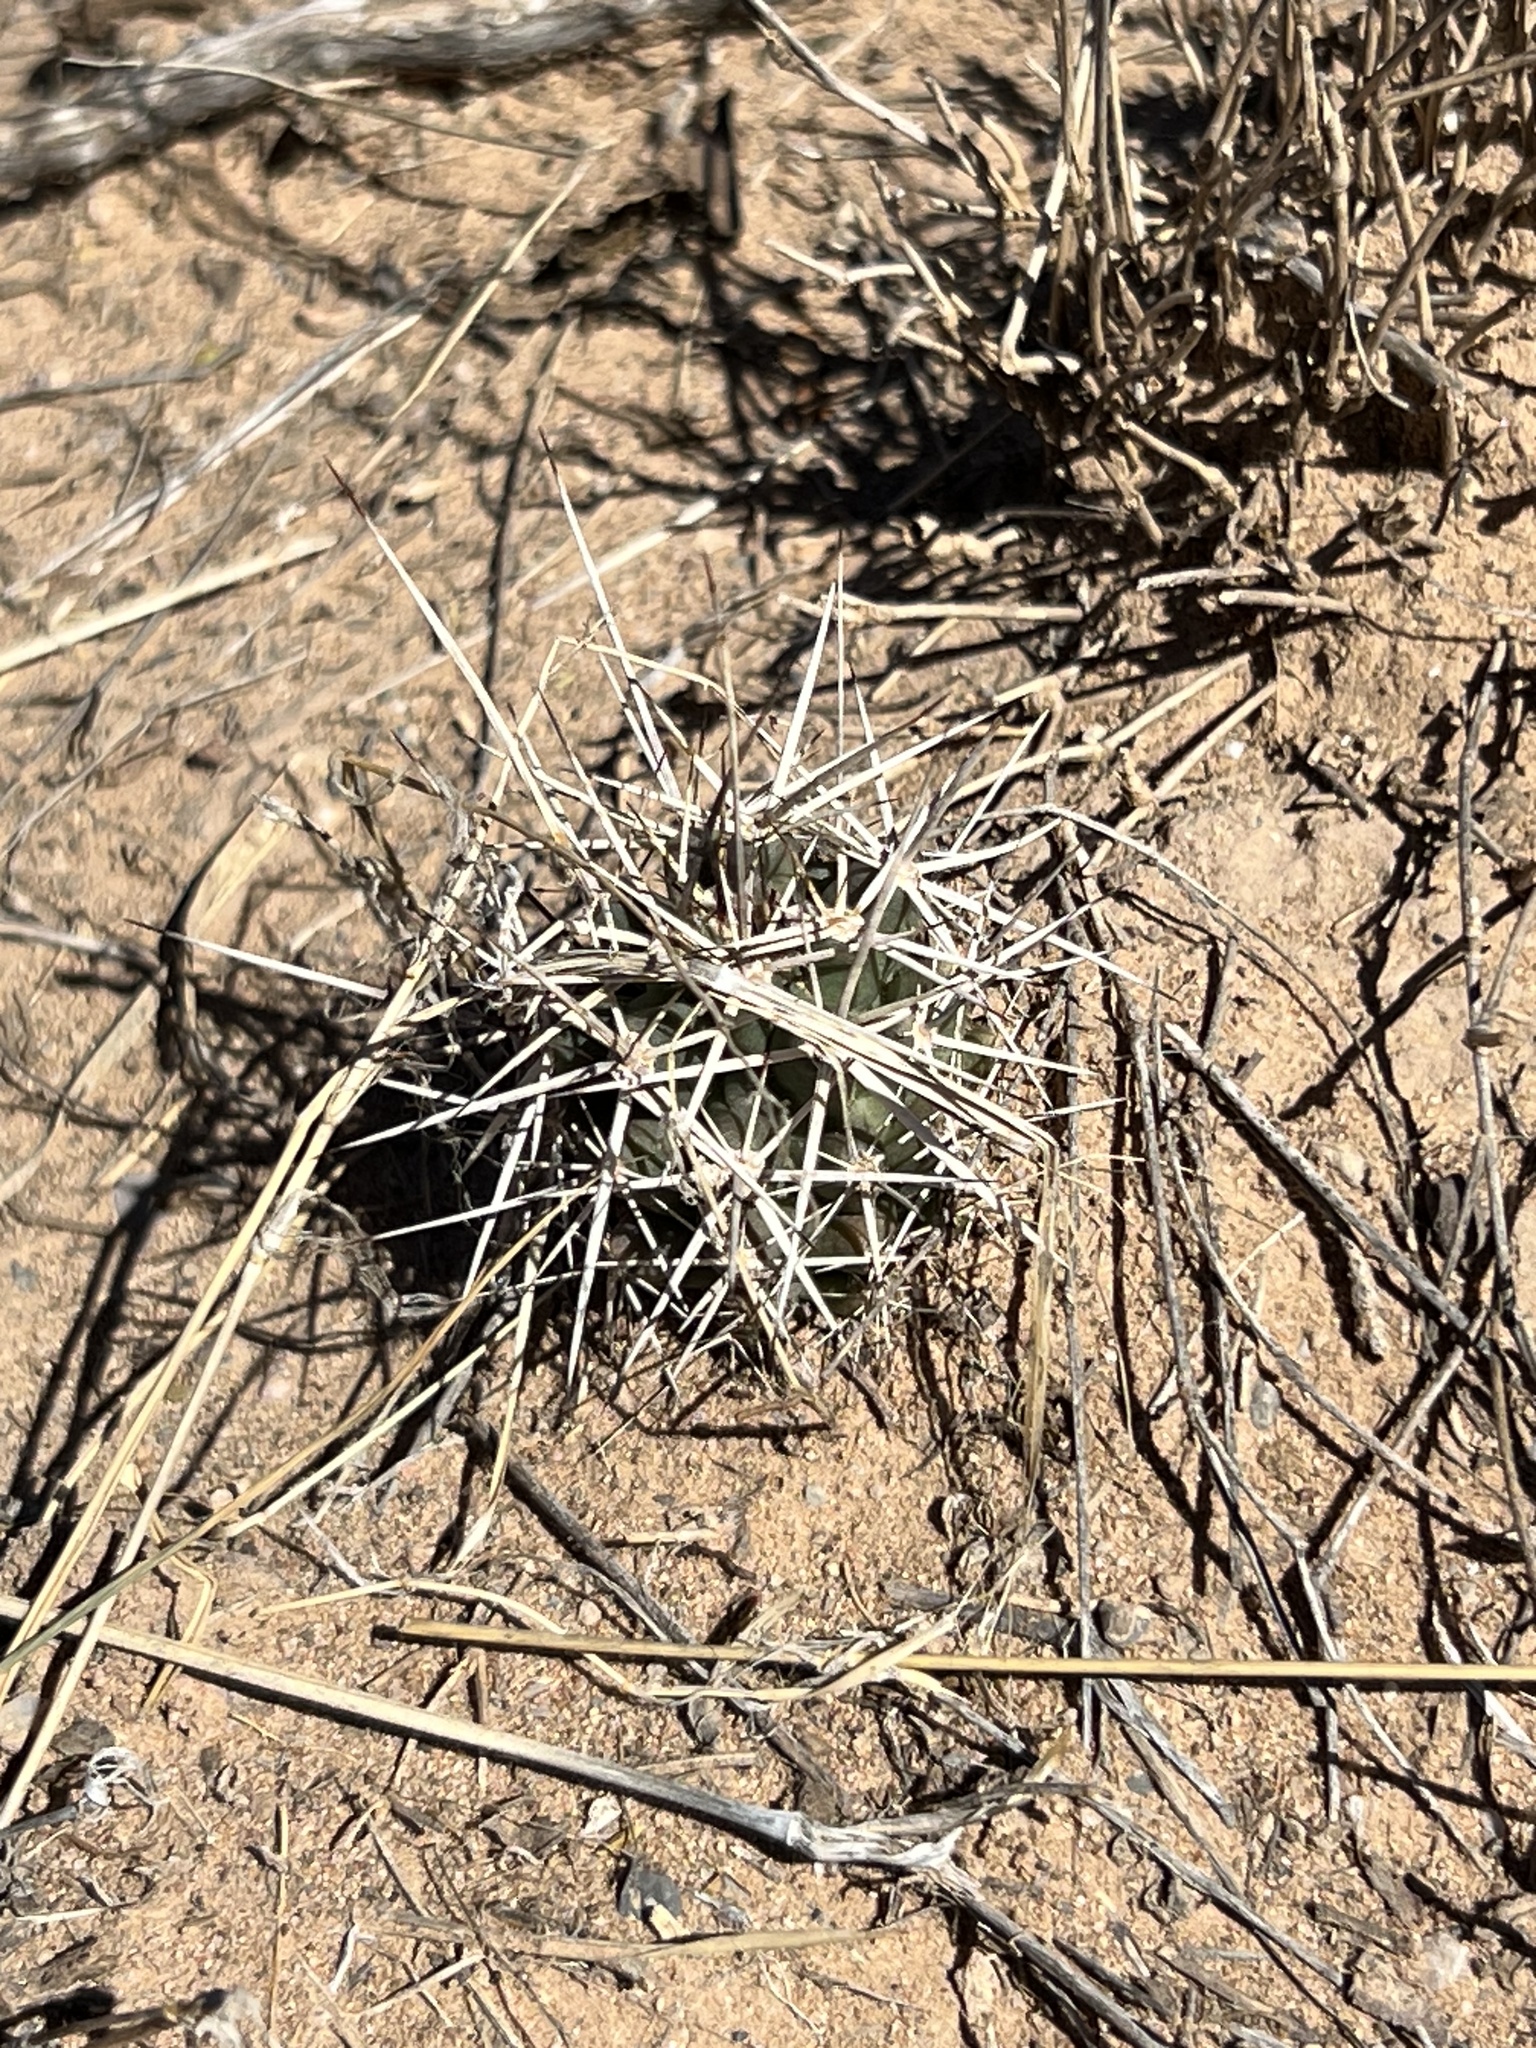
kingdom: Plantae
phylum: Tracheophyta
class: Magnoliopsida
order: Caryophyllales
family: Cactaceae
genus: Echinocereus
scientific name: Echinocereus fendleri
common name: Fendler's hedgehog cactus
